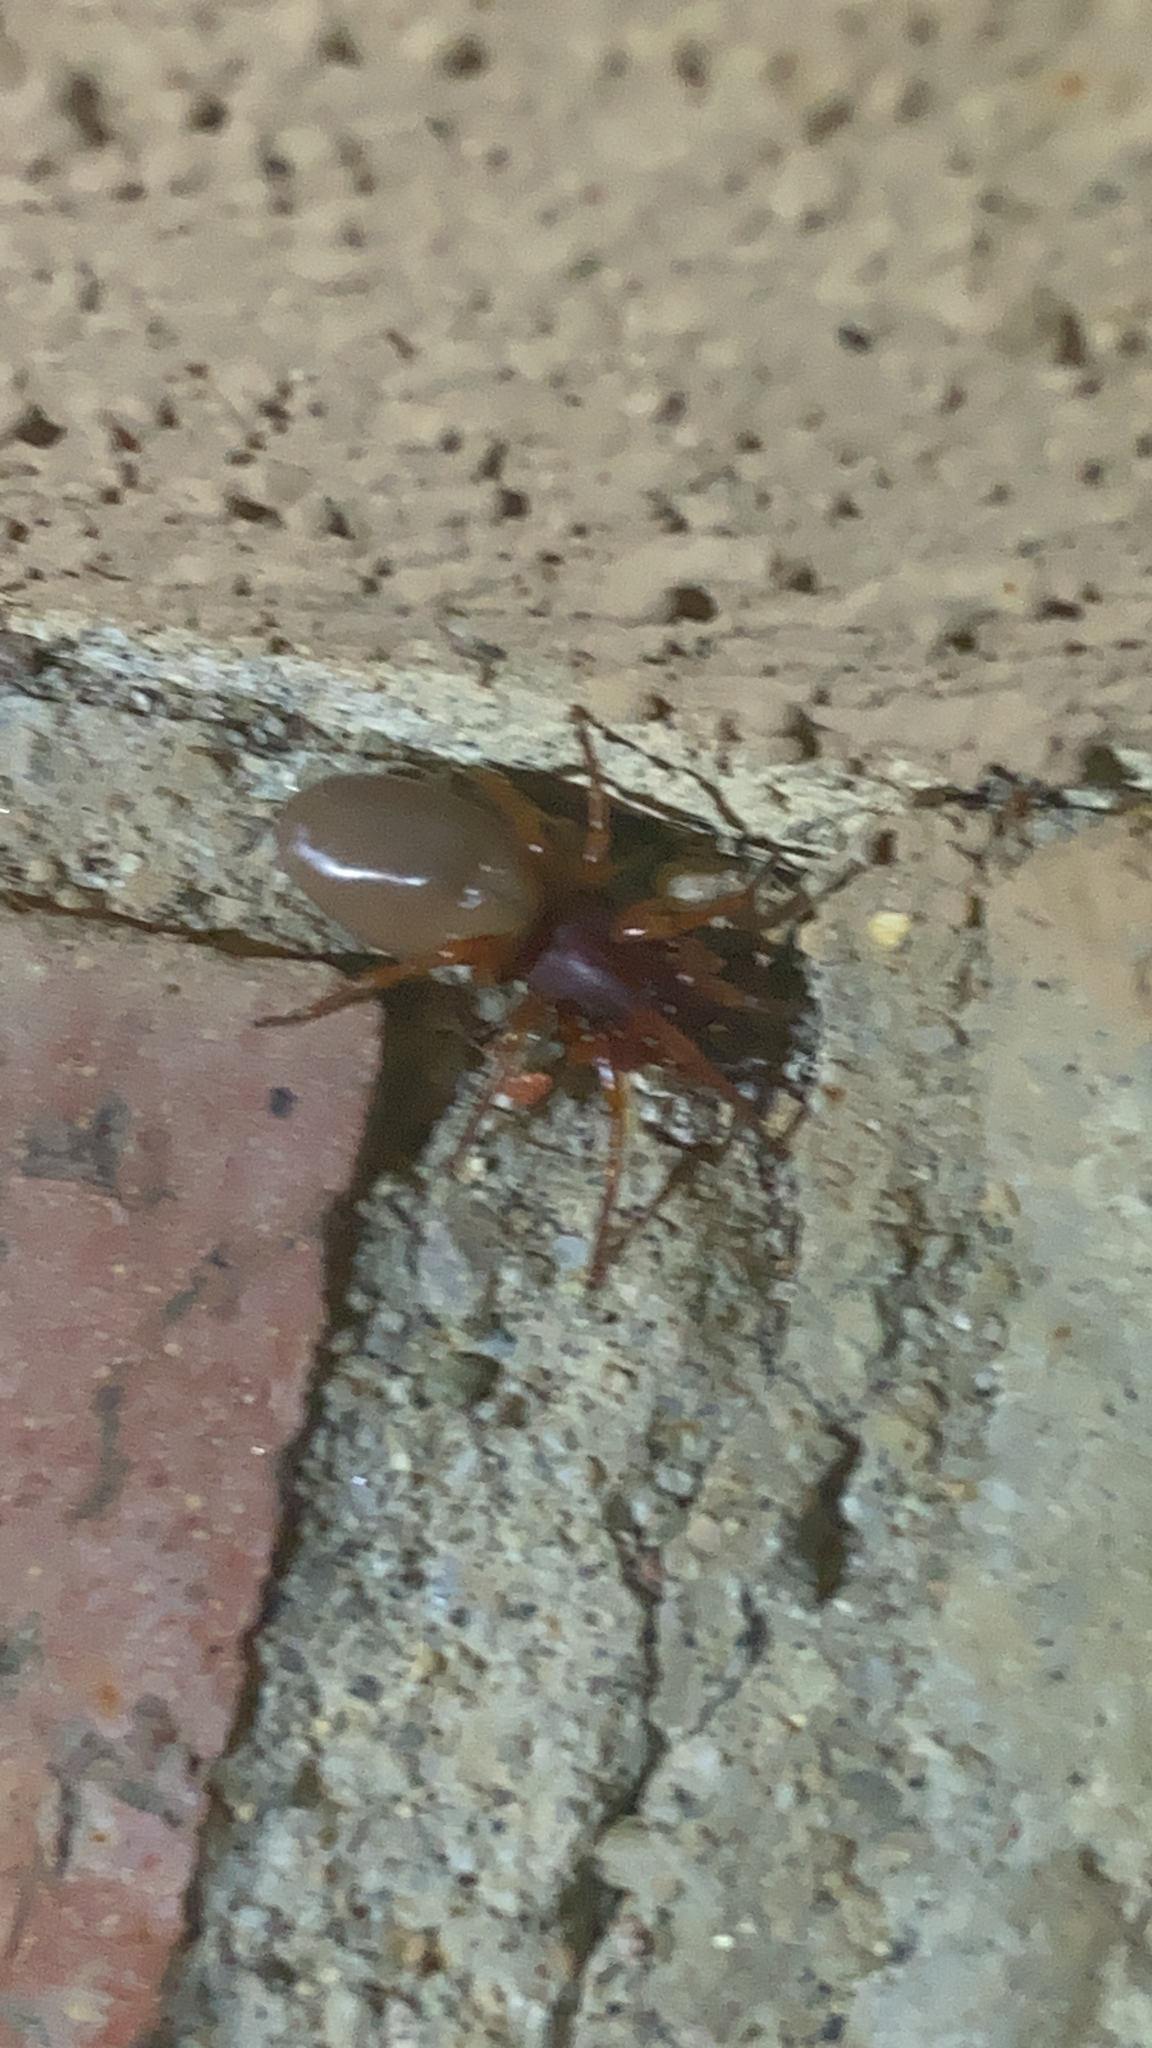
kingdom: Animalia
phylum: Arthropoda
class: Arachnida
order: Araneae
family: Dysderidae
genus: Dysdera
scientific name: Dysdera crocata
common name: Woodlouse spider
